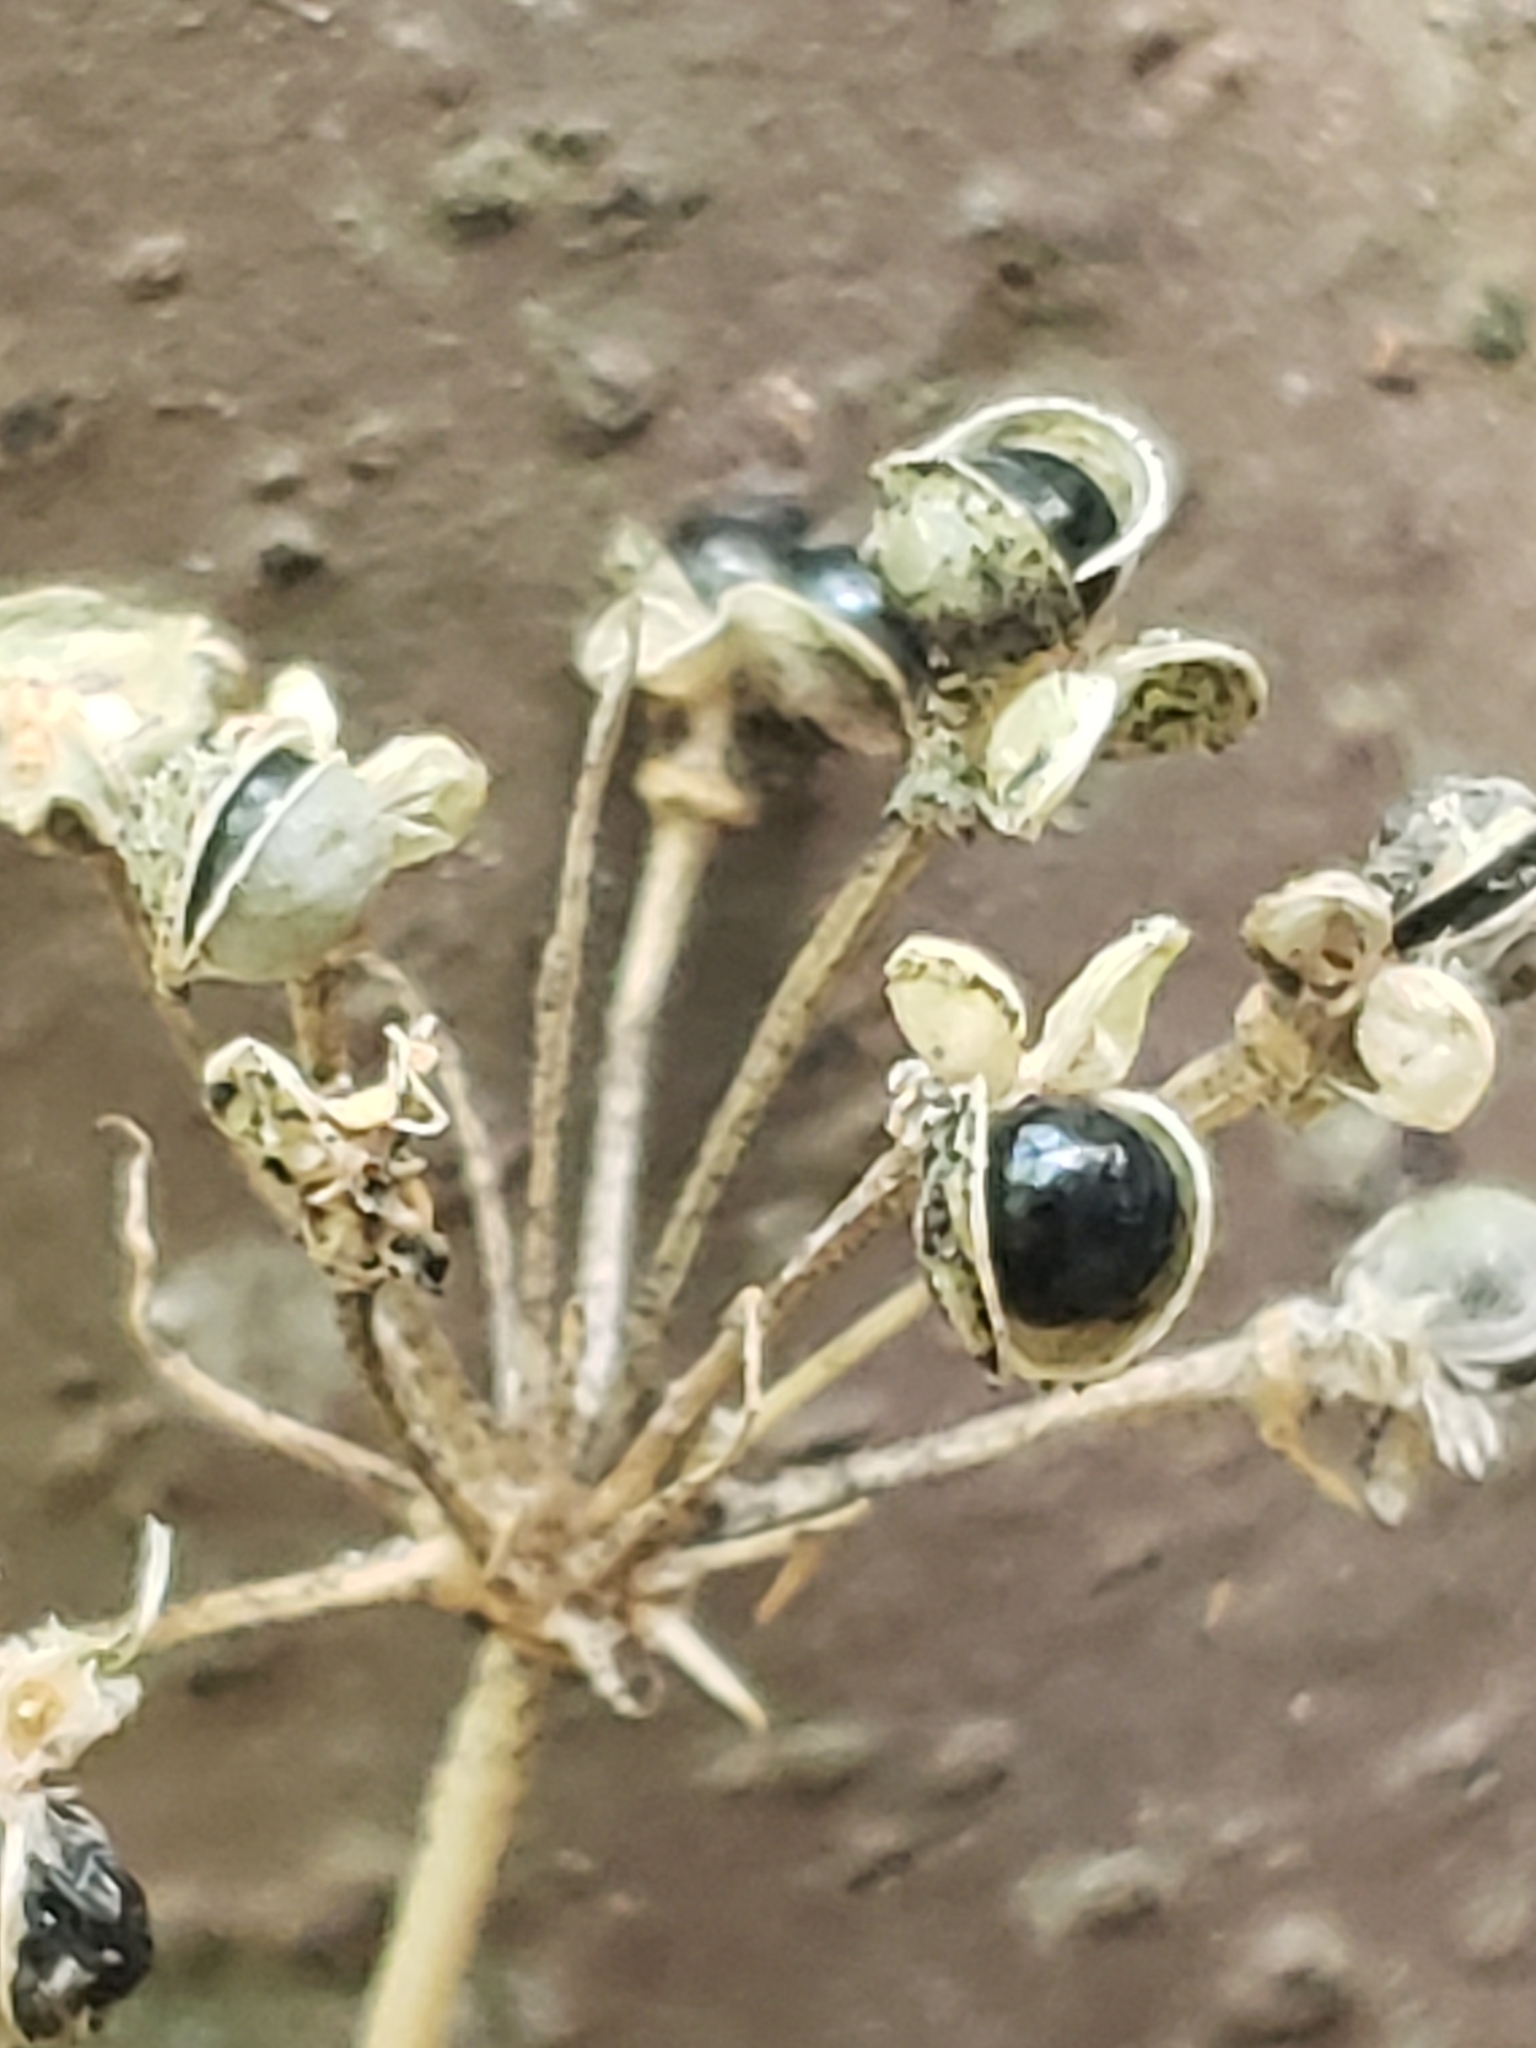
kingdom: Plantae
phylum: Tracheophyta
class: Liliopsida
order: Asparagales
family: Amaryllidaceae
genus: Allium
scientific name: Allium tricoccum
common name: Ramp
